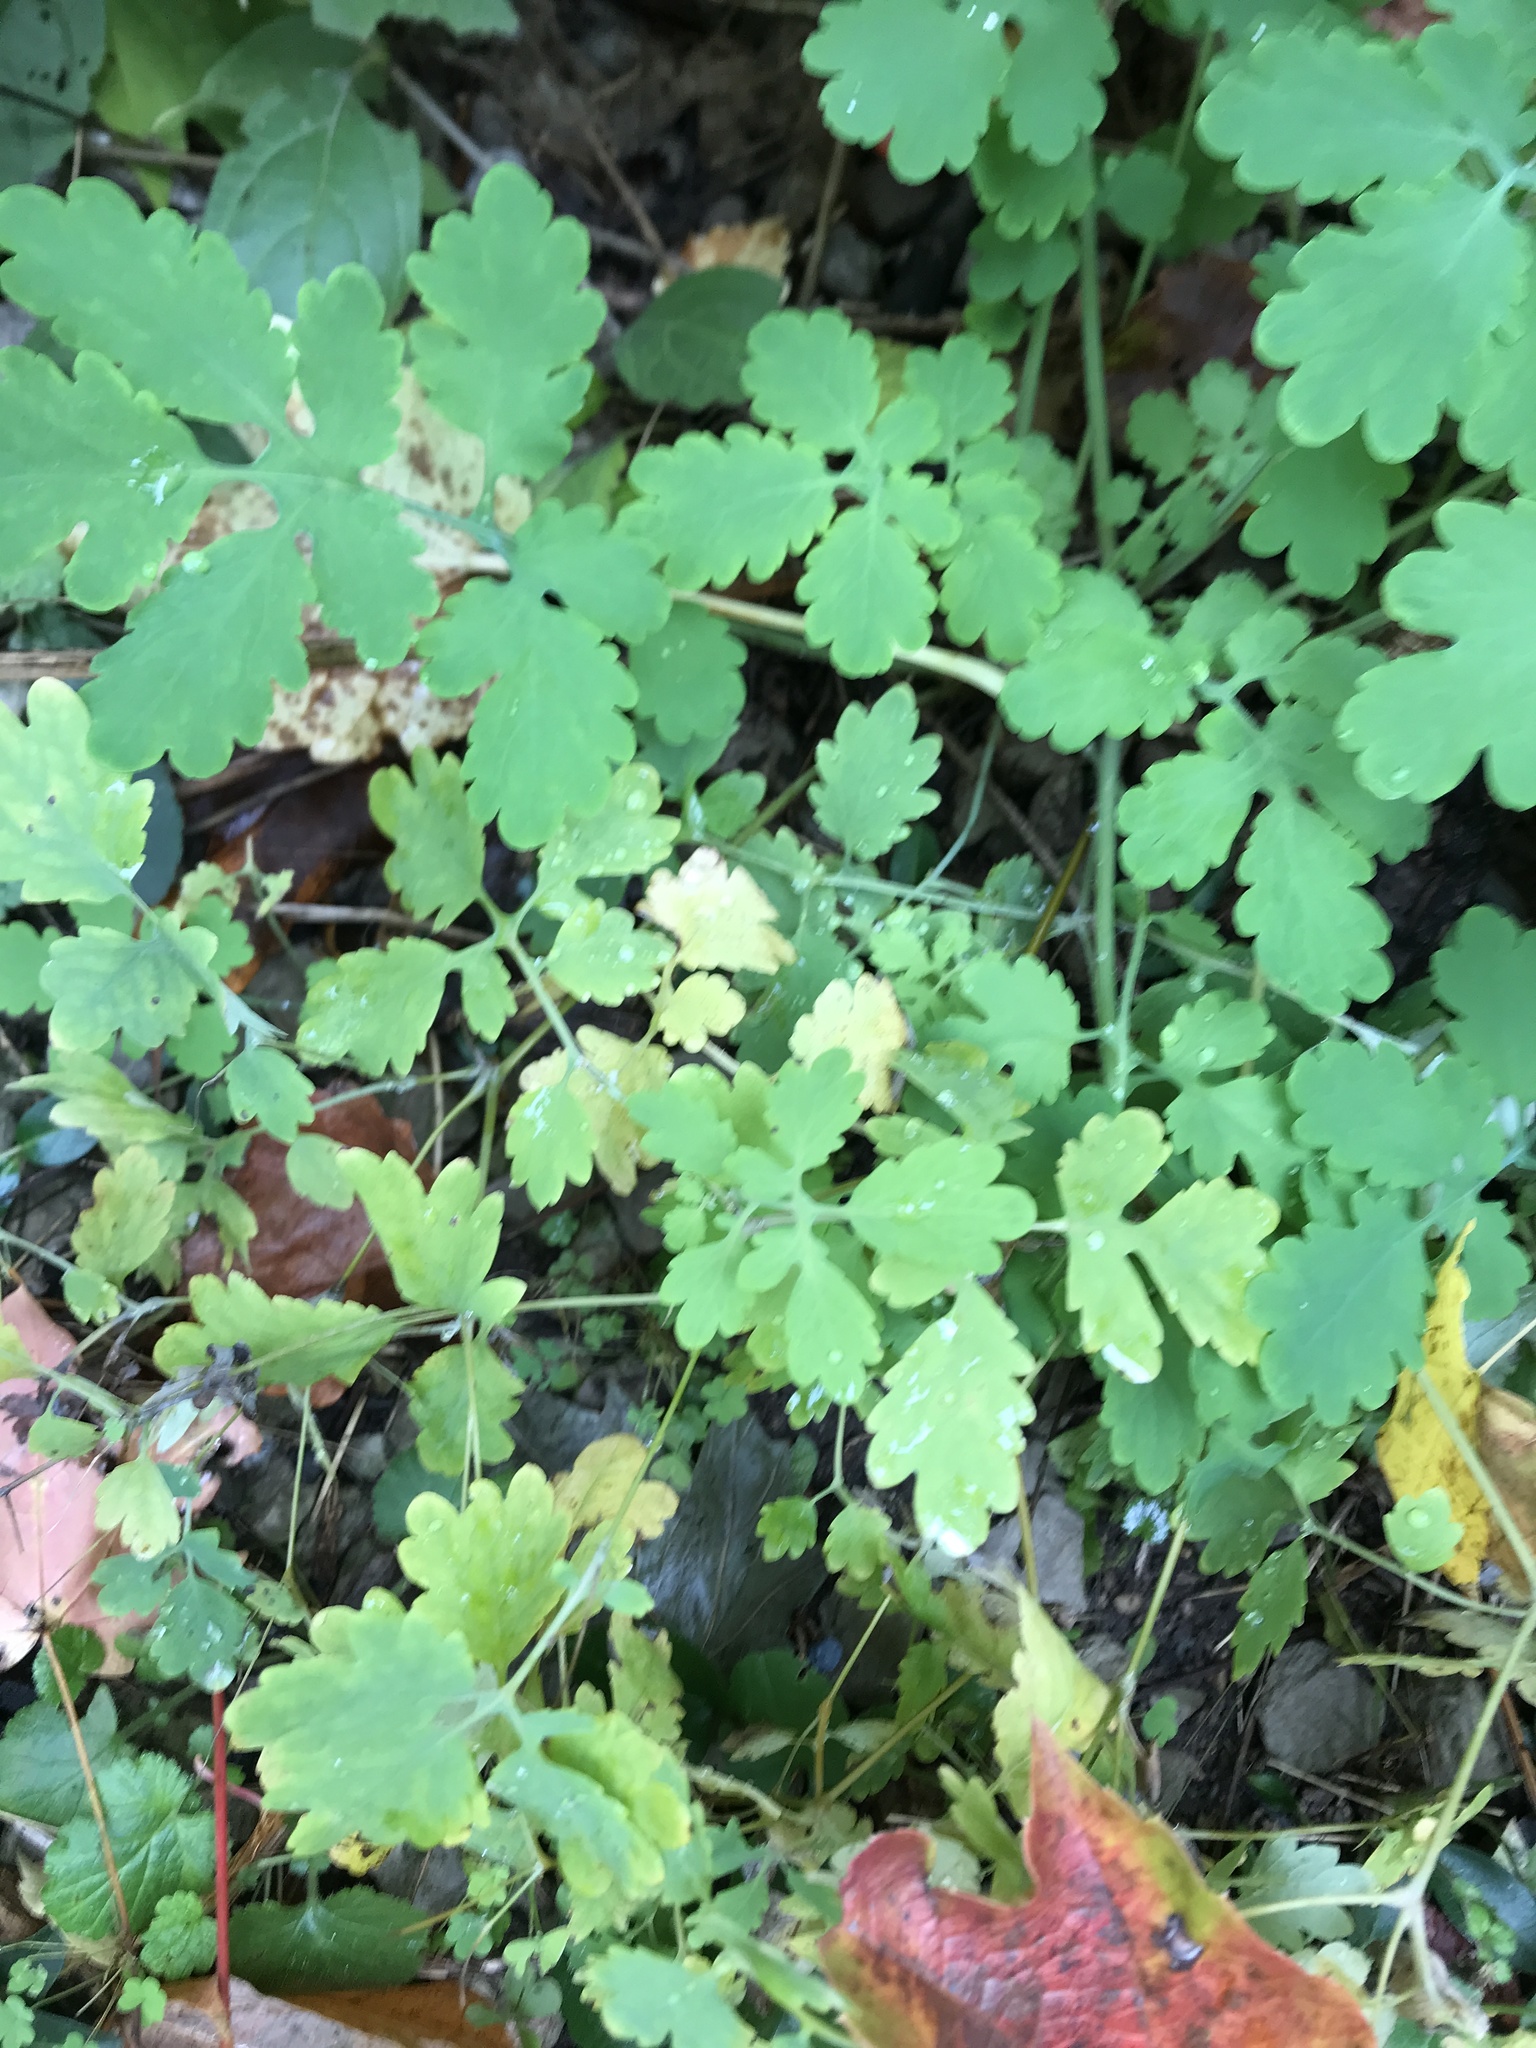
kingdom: Plantae
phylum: Tracheophyta
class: Magnoliopsida
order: Ranunculales
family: Papaveraceae
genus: Chelidonium
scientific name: Chelidonium majus
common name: Greater celandine
